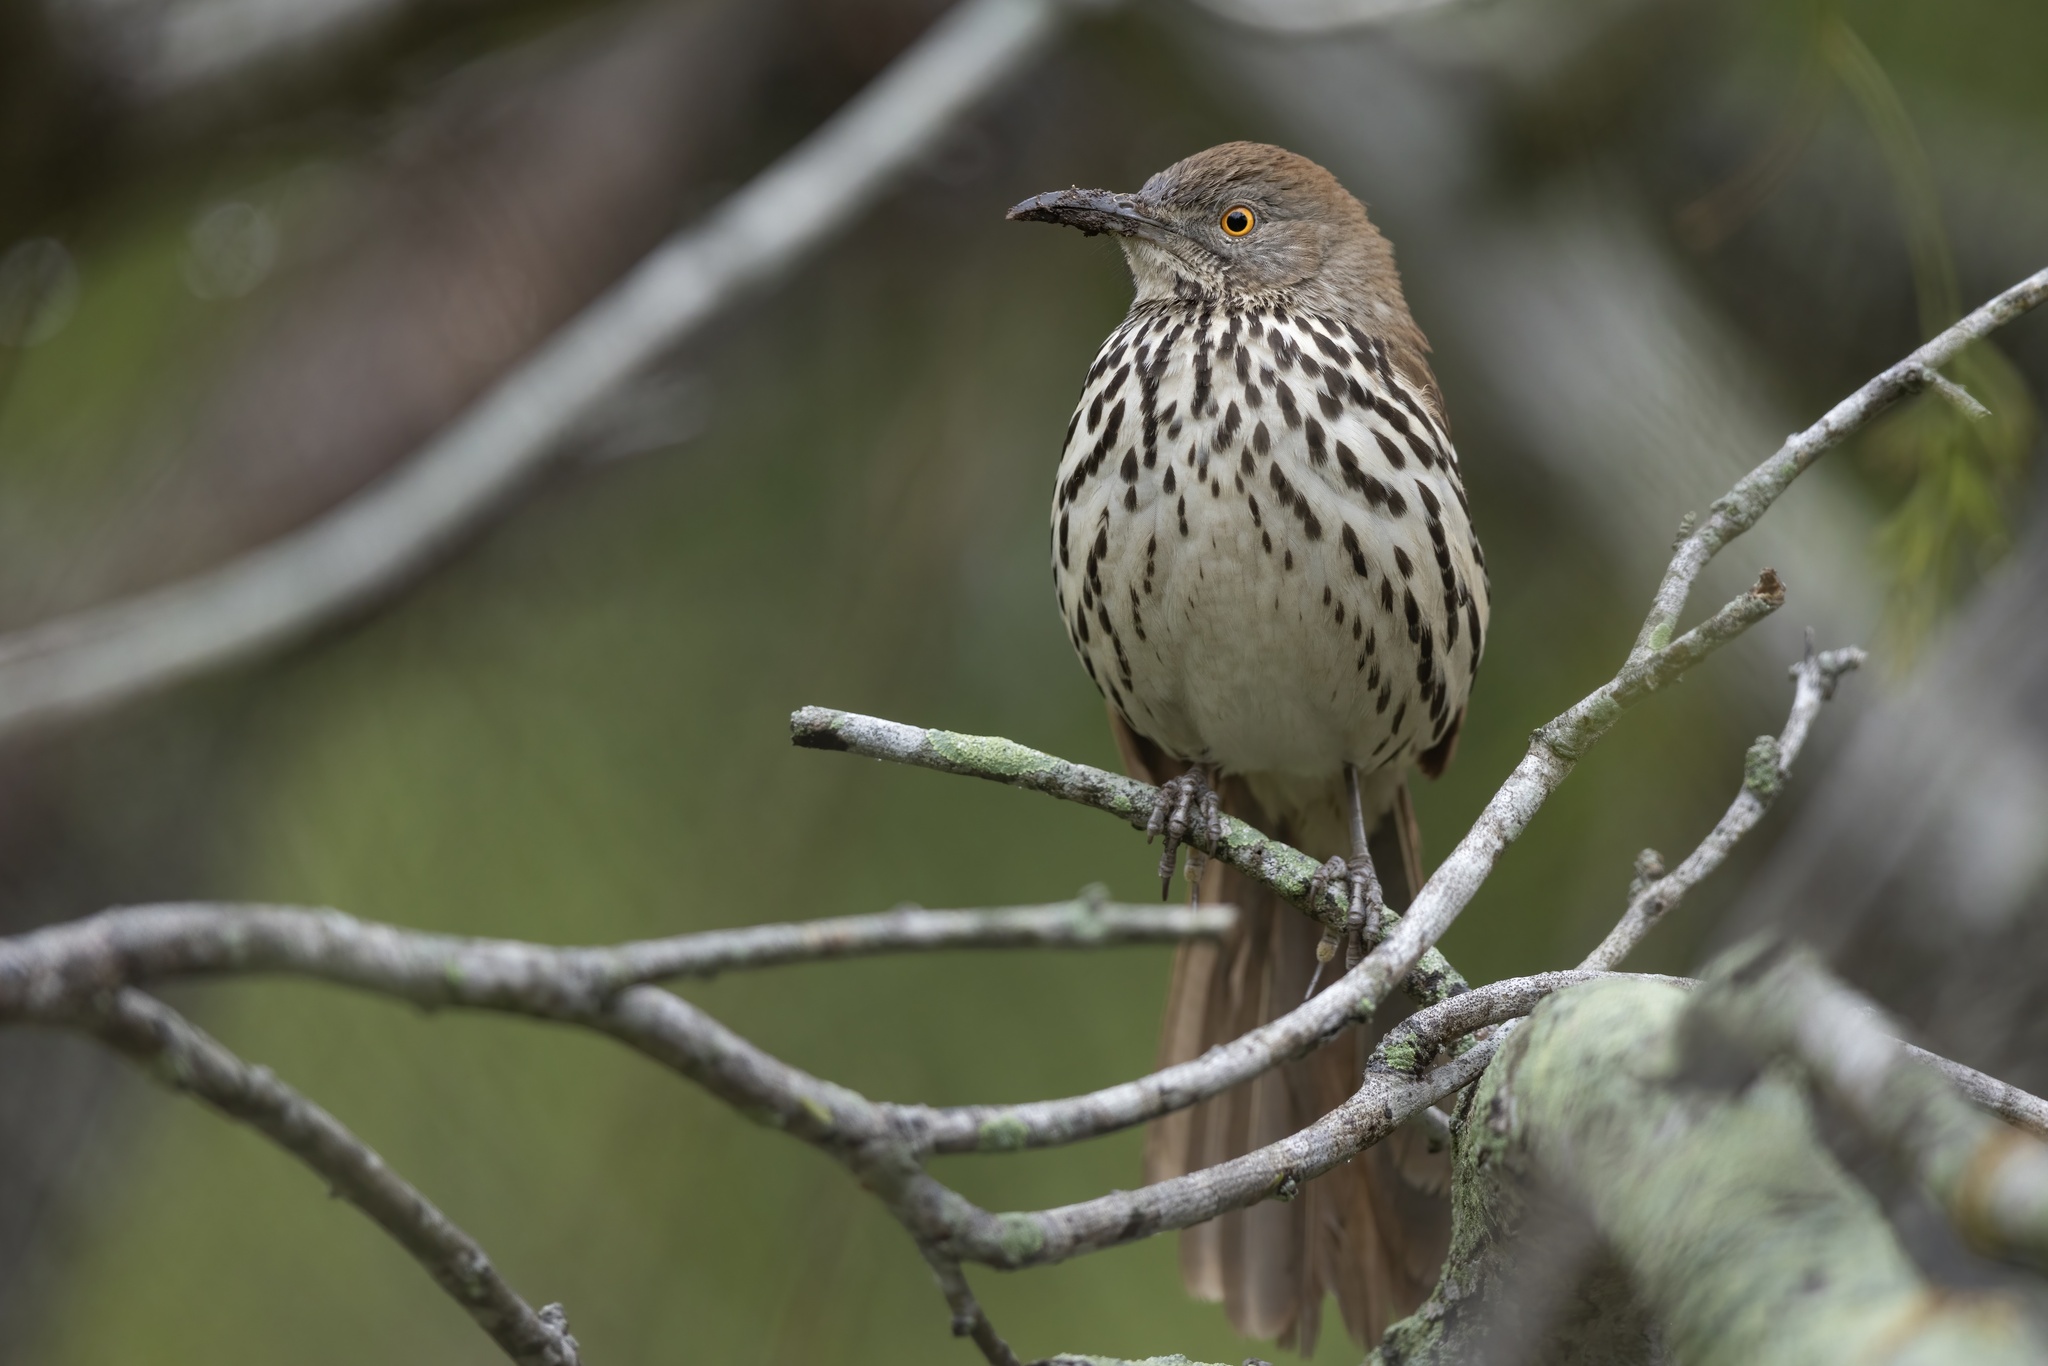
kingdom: Animalia
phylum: Chordata
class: Aves
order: Passeriformes
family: Mimidae
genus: Toxostoma
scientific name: Toxostoma longirostre
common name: Long-billed thrasher
